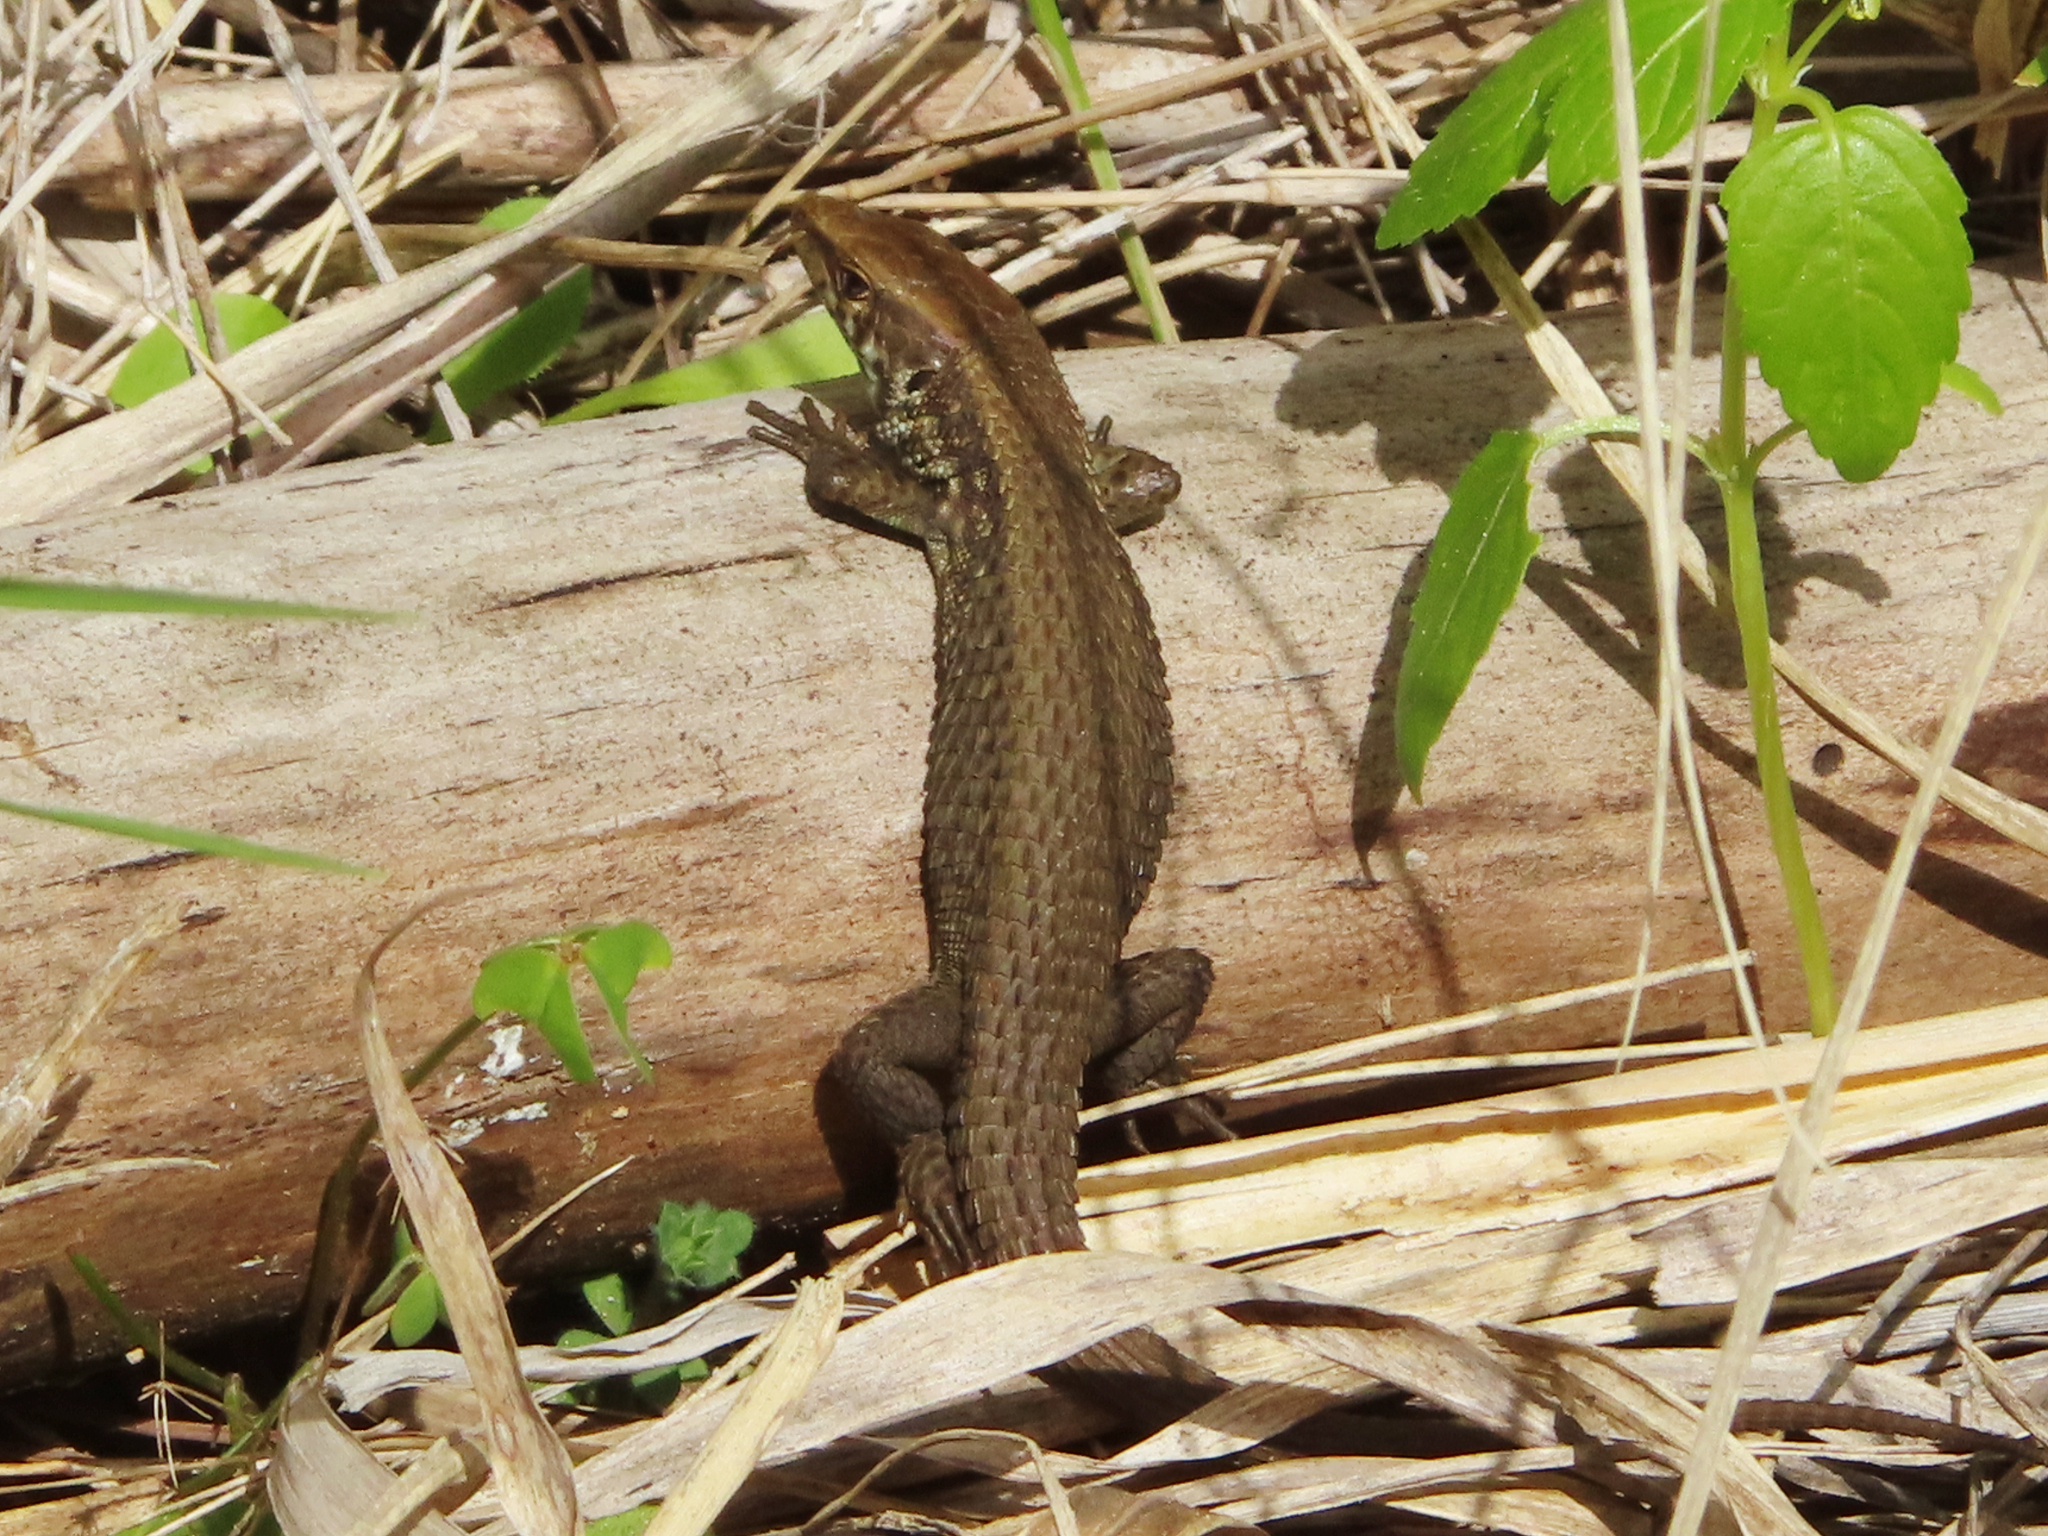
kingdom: Animalia
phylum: Chordata
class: Squamata
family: Lacertidae
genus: Algyroides
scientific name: Algyroides moreoticus
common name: Greek algyroides
